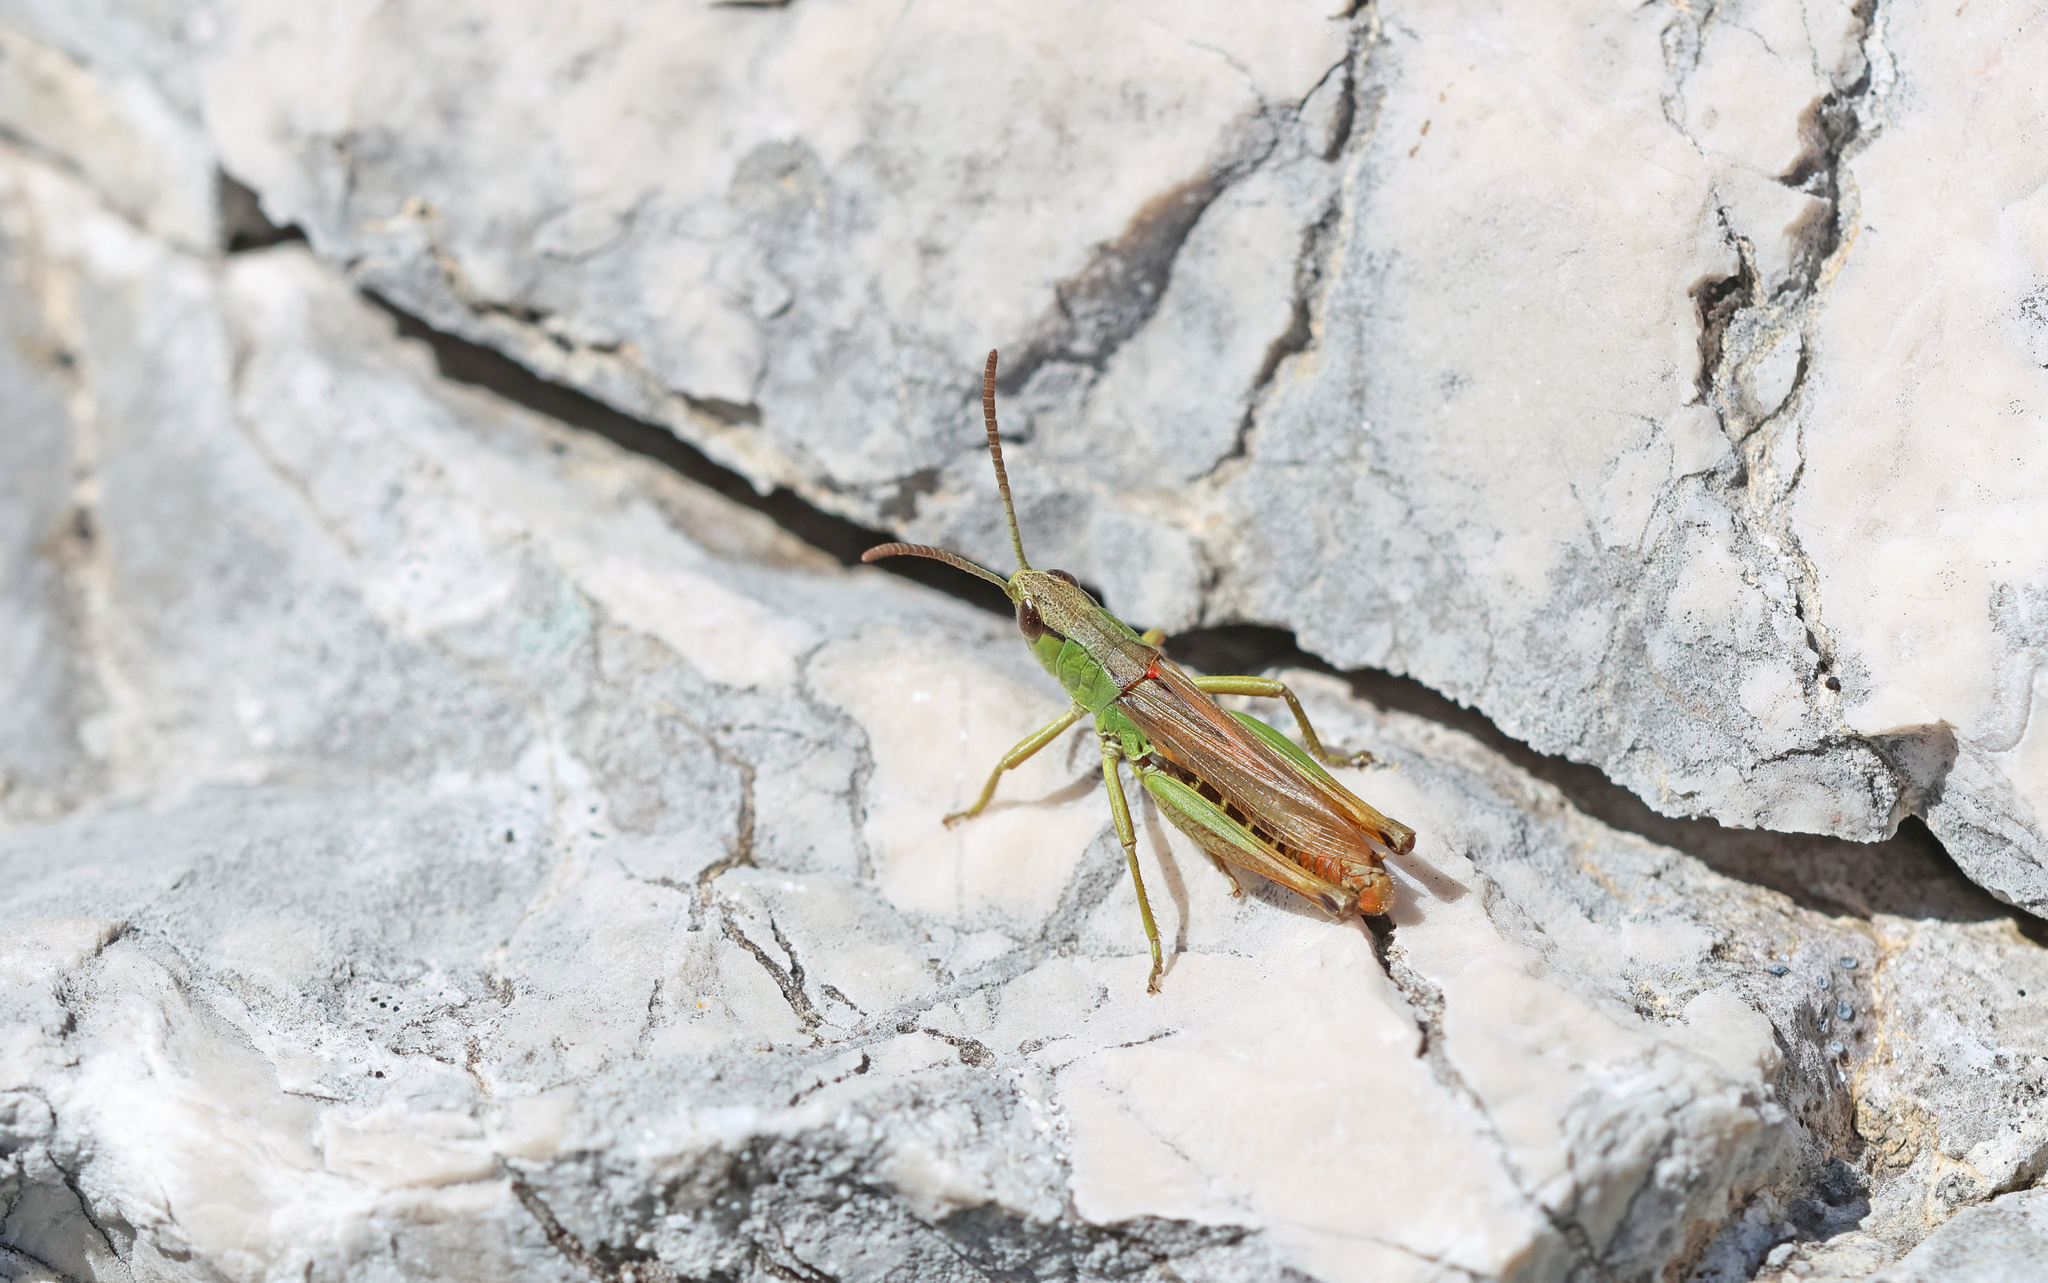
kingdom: Animalia
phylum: Arthropoda
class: Insecta
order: Orthoptera
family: Acrididae
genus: Pseudochorthippus
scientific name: Pseudochorthippus parallelus
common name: Meadow grasshopper
